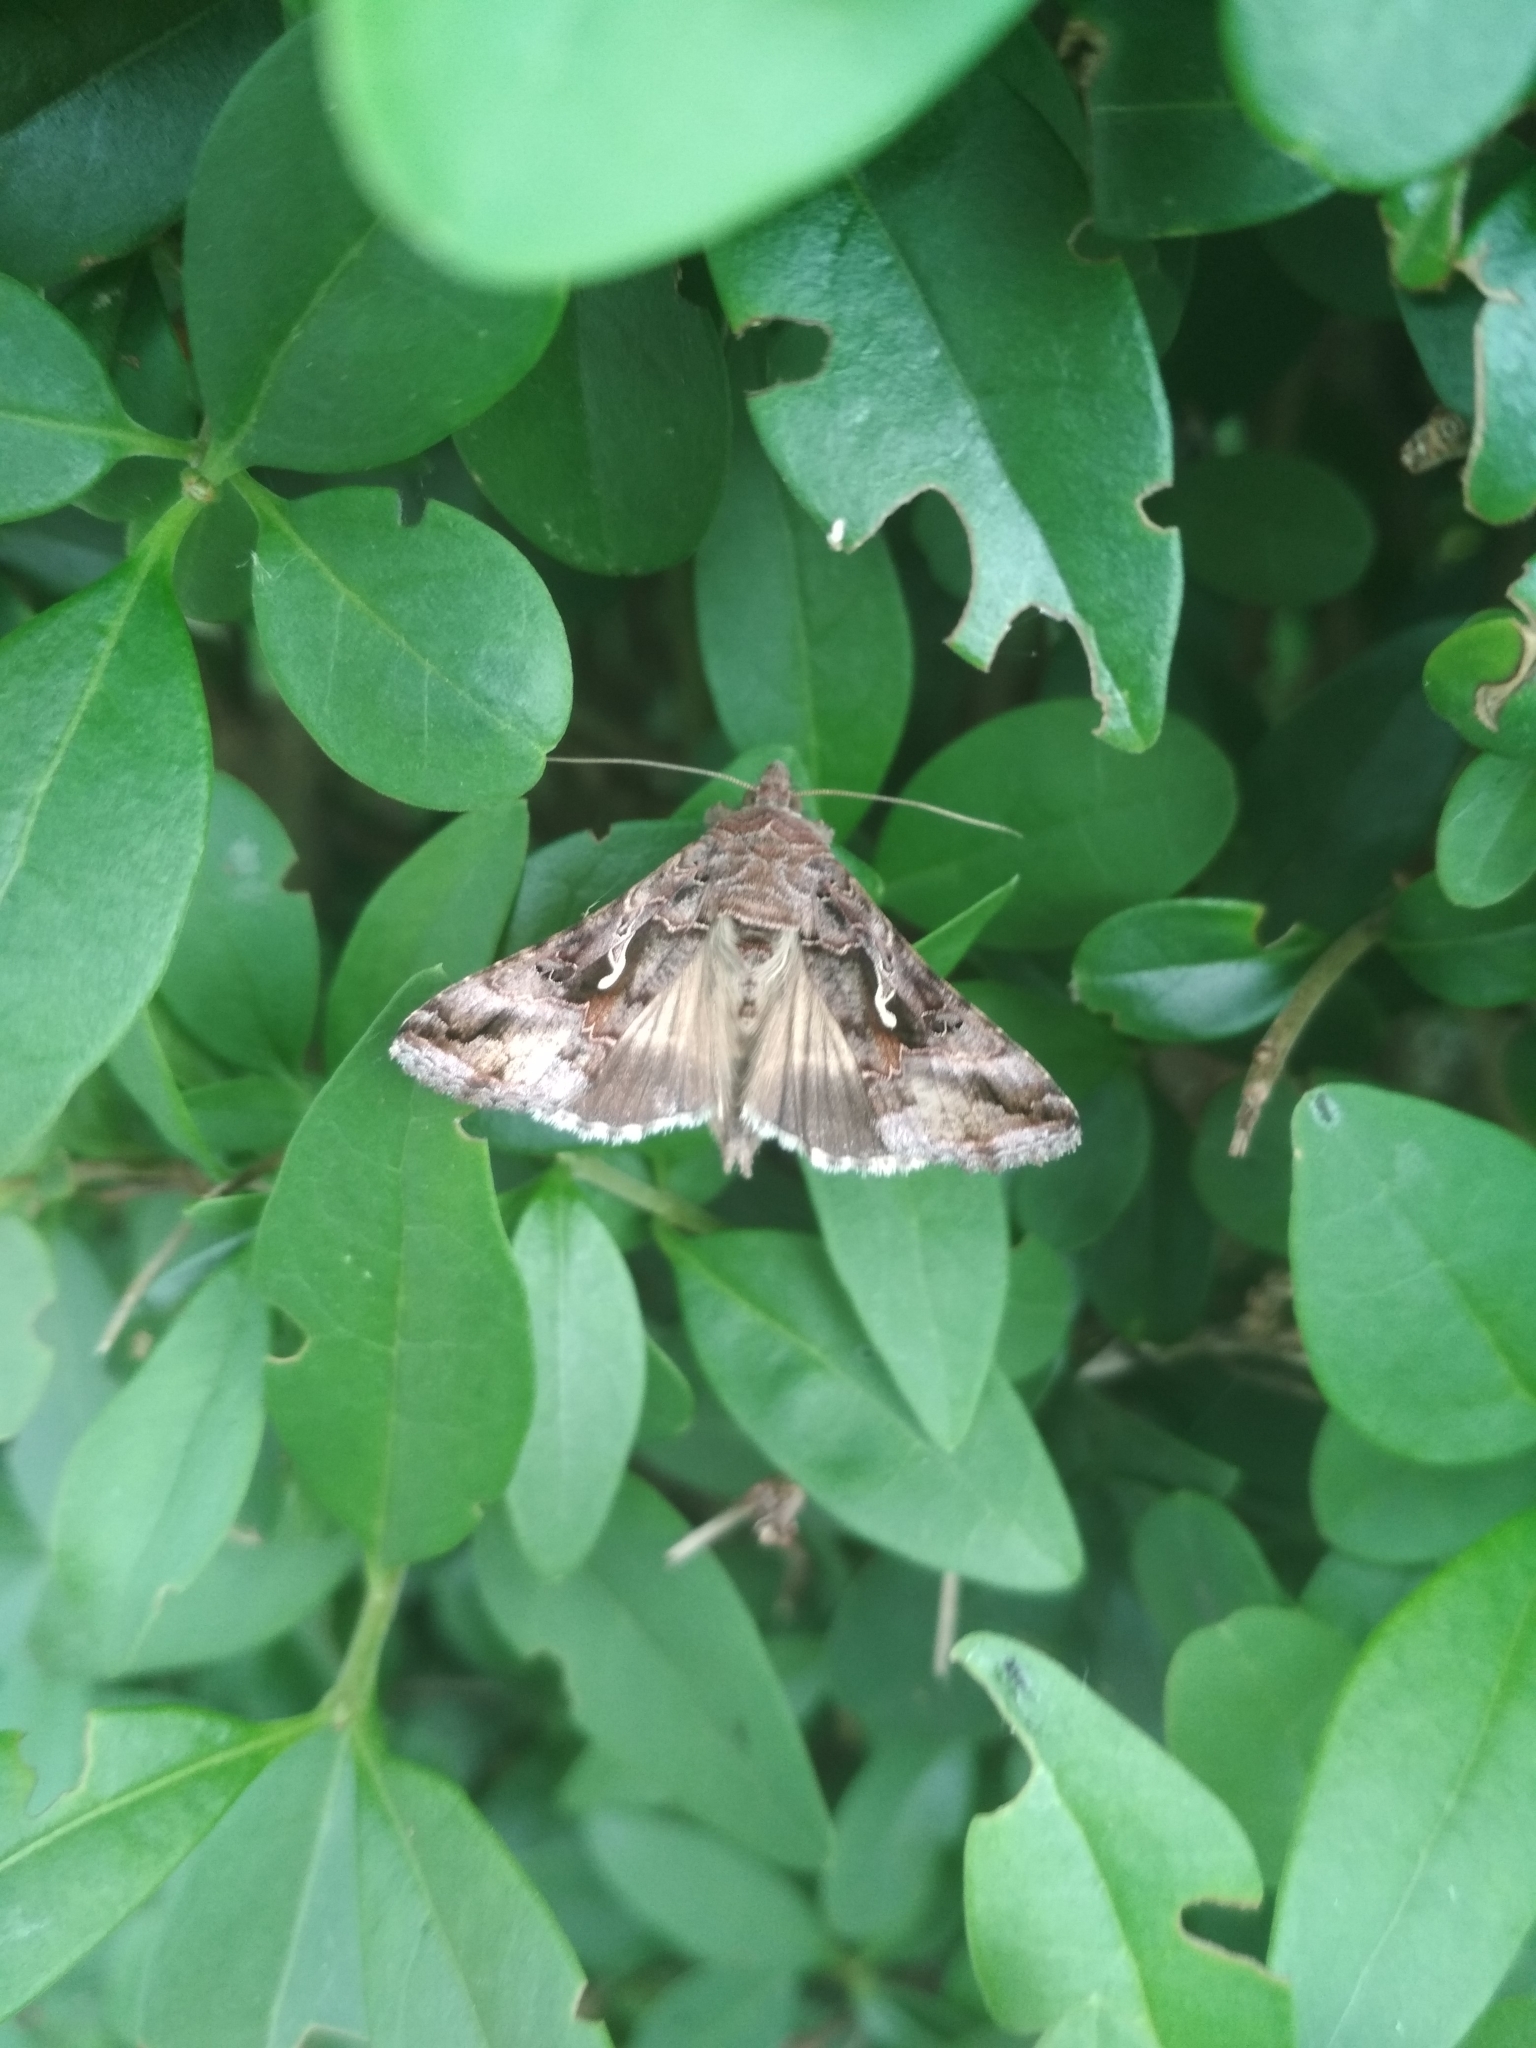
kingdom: Animalia
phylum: Arthropoda
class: Insecta
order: Lepidoptera
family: Noctuidae
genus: Autographa
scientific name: Autographa gamma
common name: Silver y
